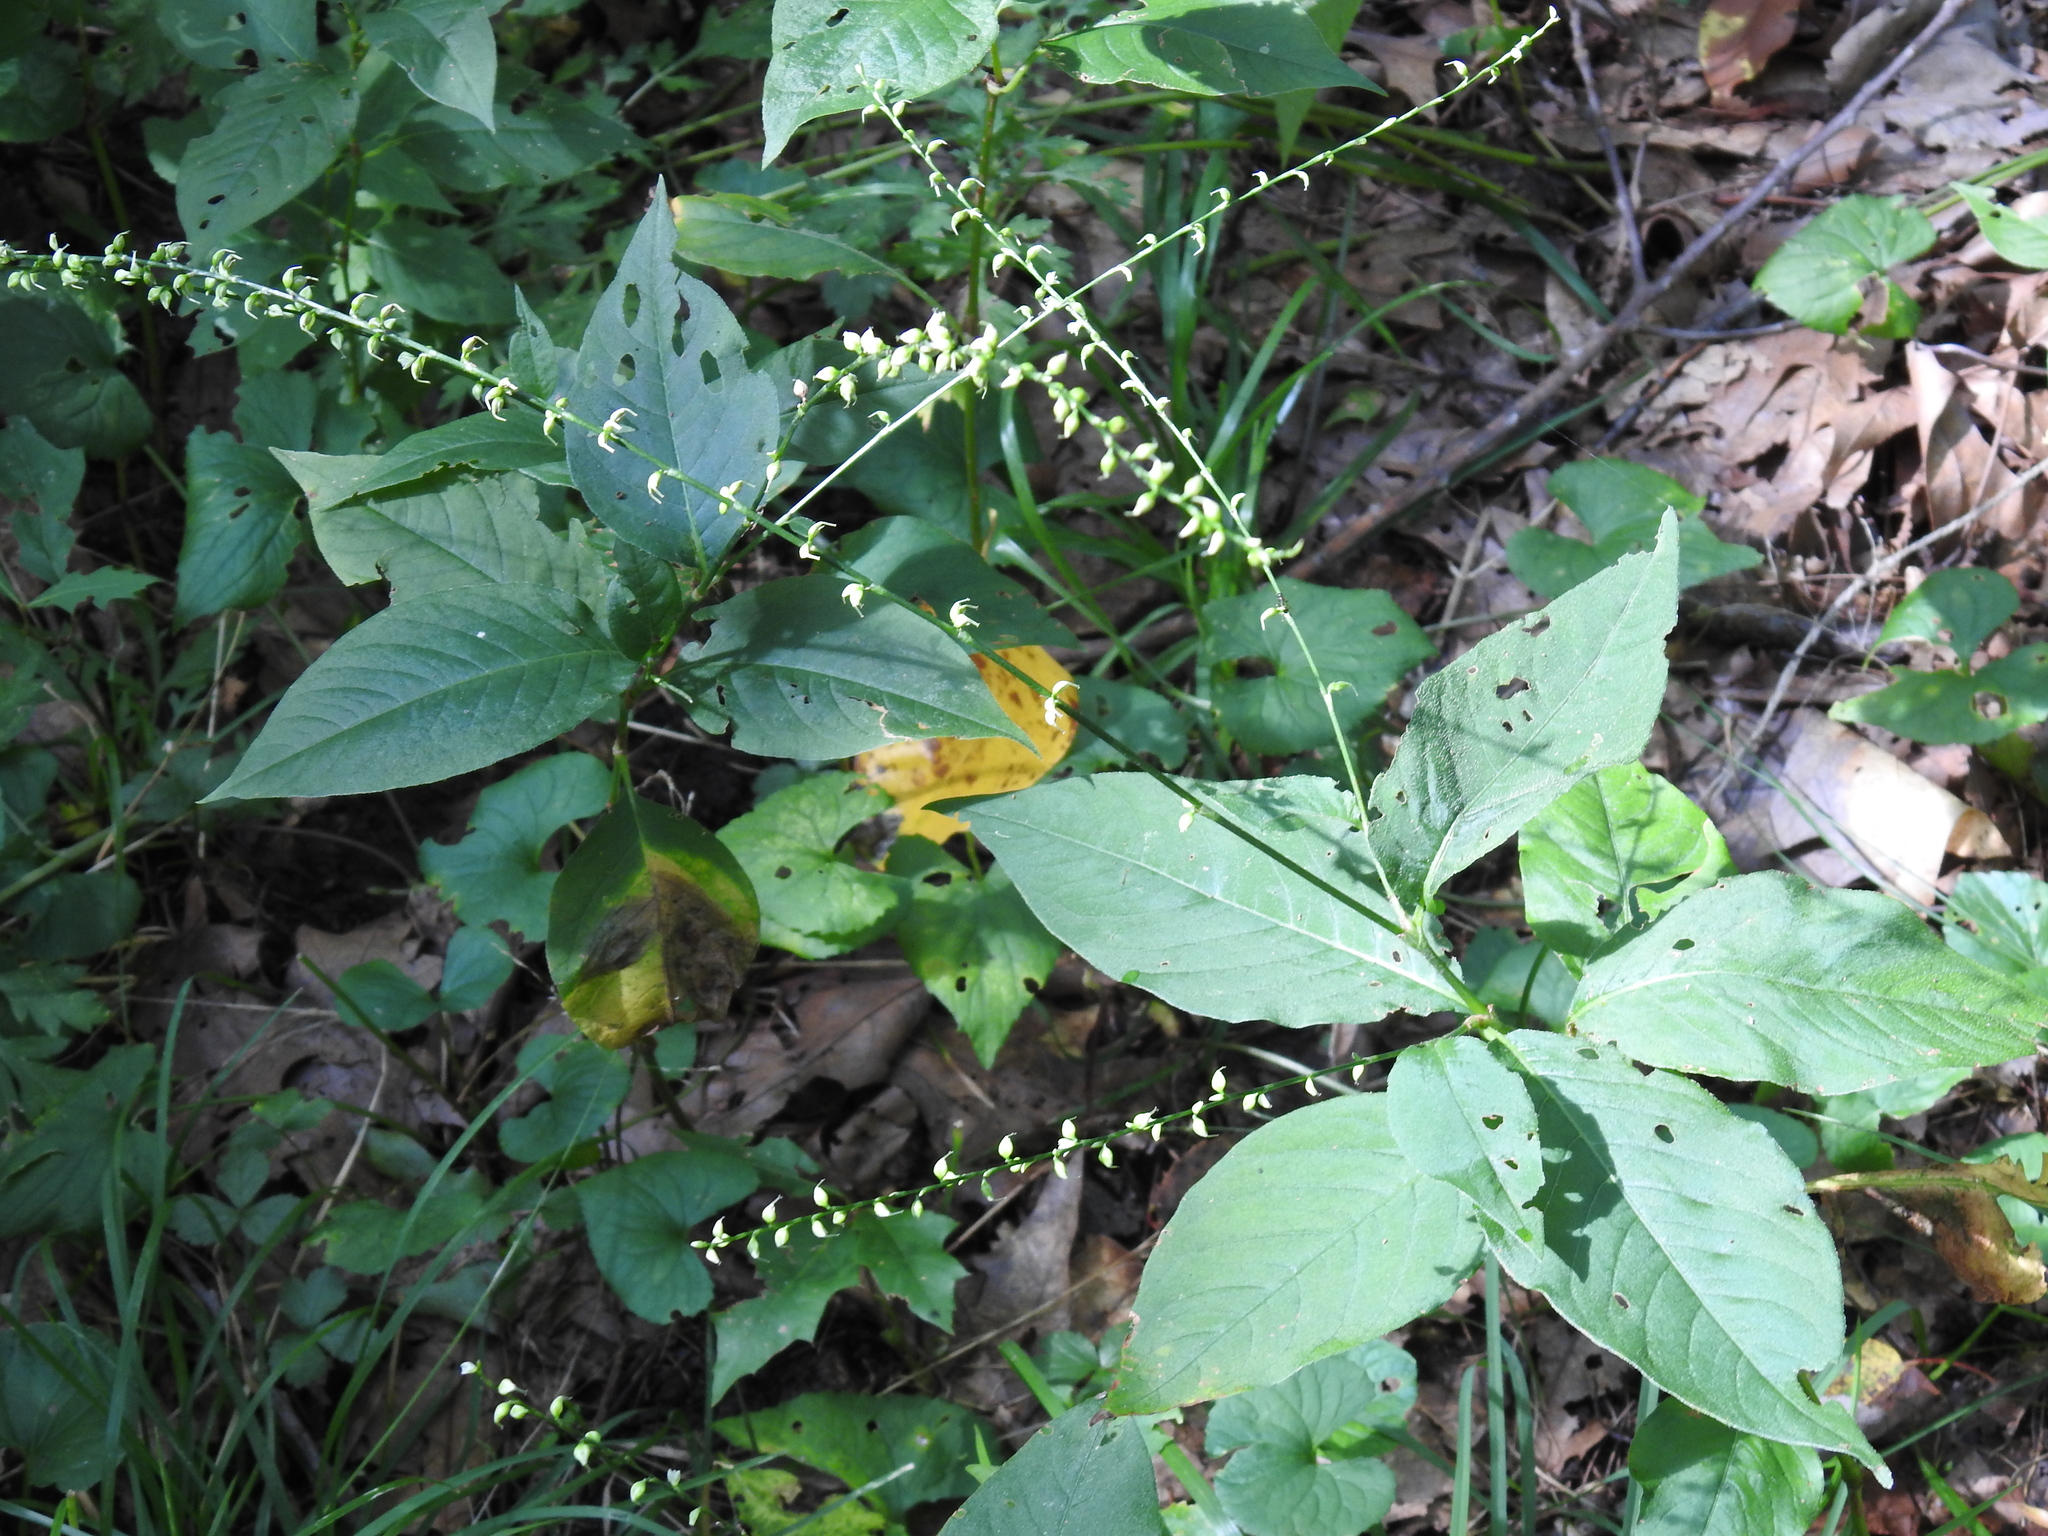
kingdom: Plantae
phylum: Tracheophyta
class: Magnoliopsida
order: Caryophyllales
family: Polygonaceae
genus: Persicaria
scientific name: Persicaria virginiana
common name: Jumpseed
